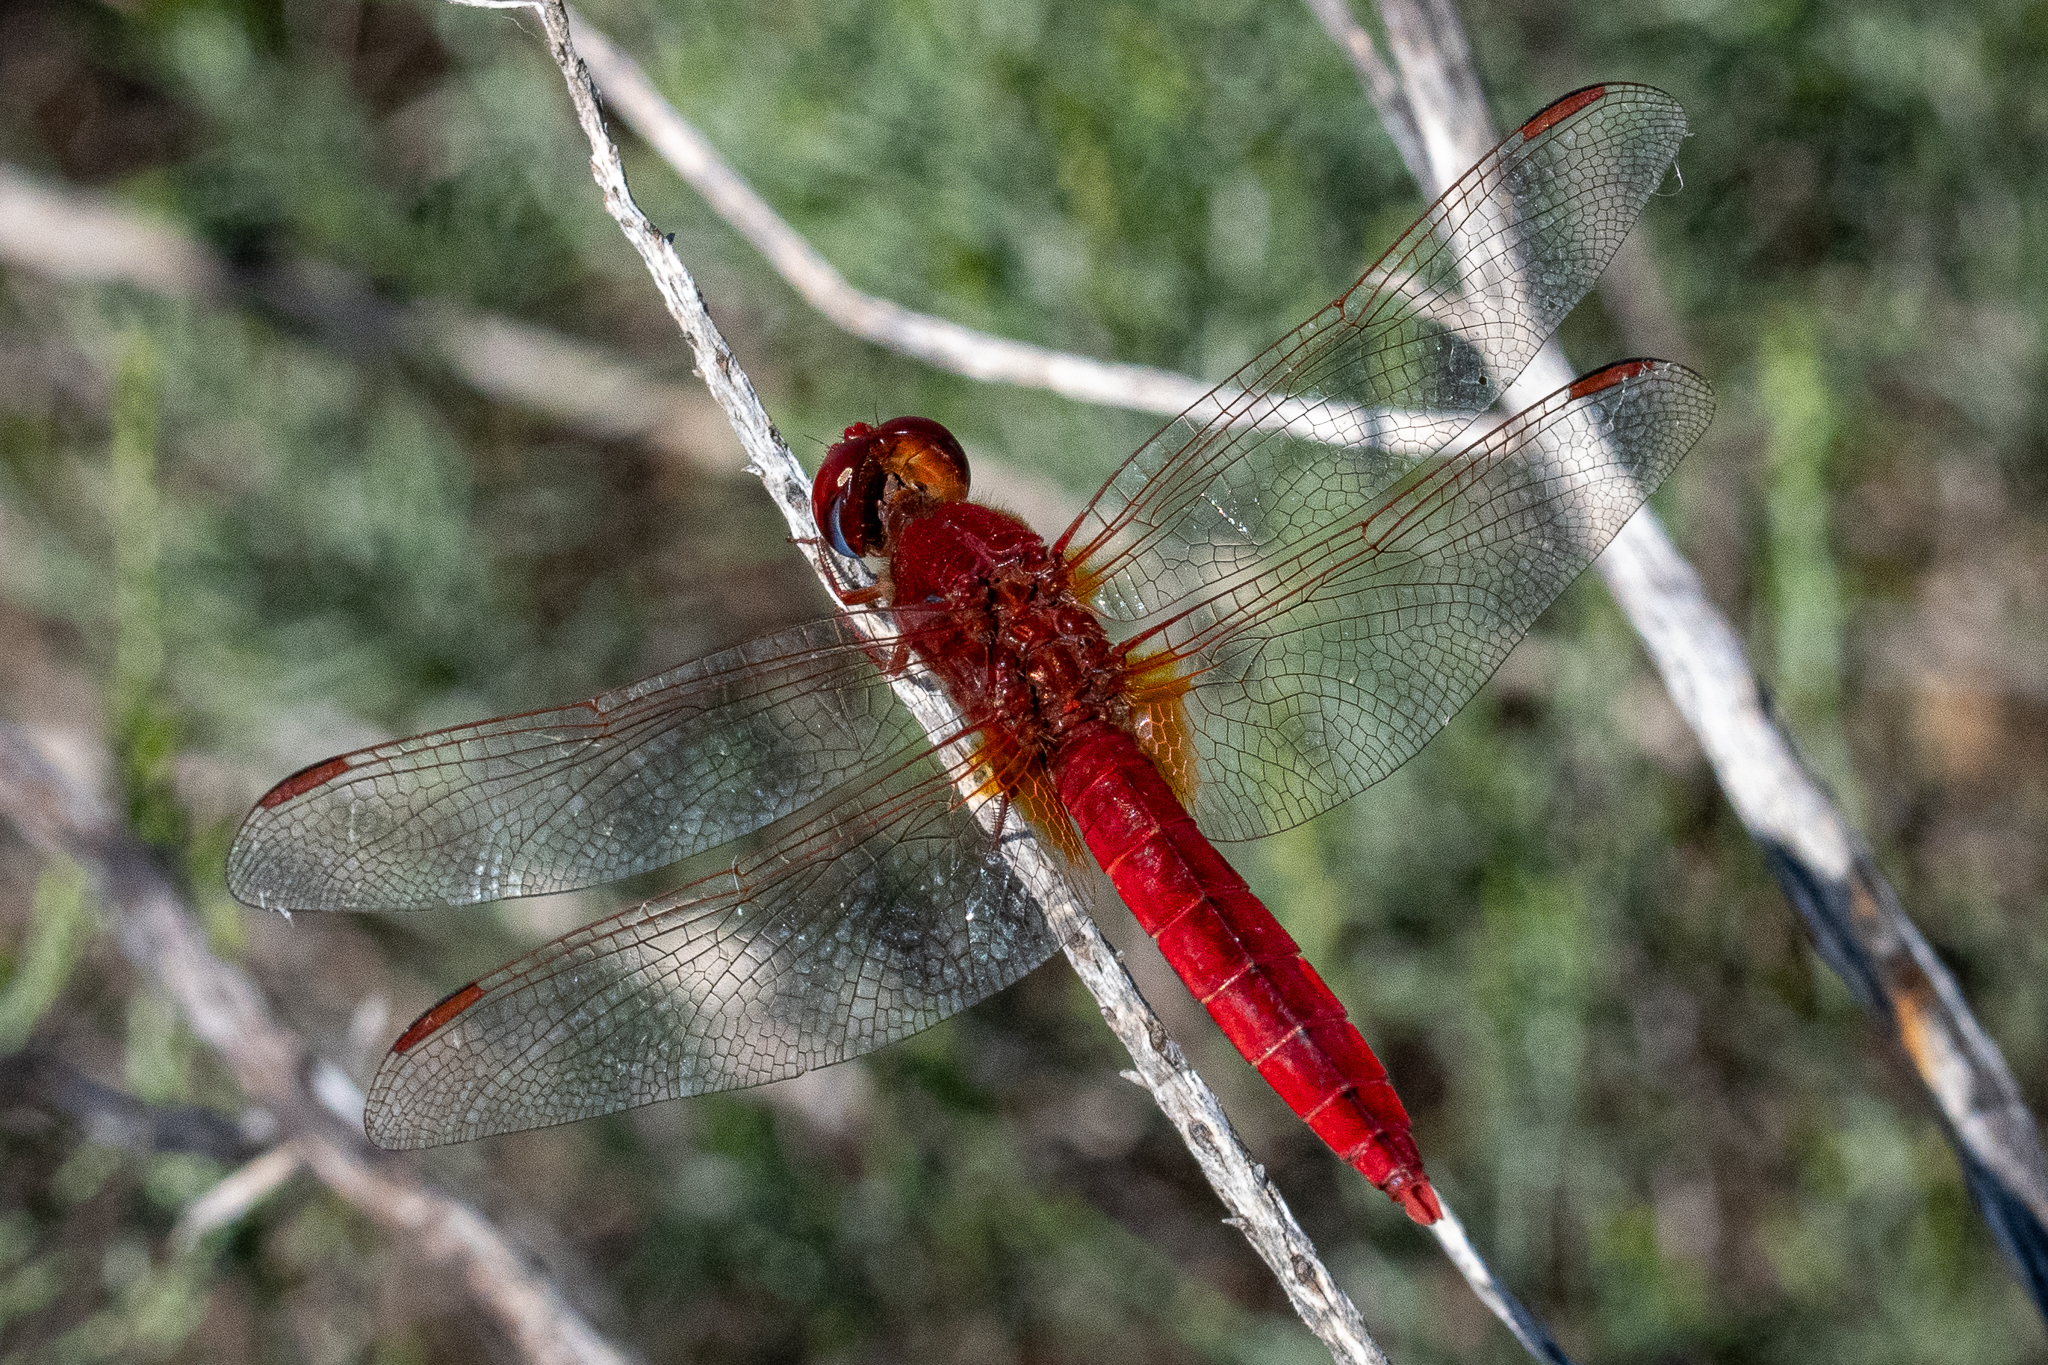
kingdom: Animalia
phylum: Arthropoda
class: Insecta
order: Odonata
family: Libellulidae
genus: Crocothemis
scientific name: Crocothemis erythraea
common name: Scarlet dragonfly
